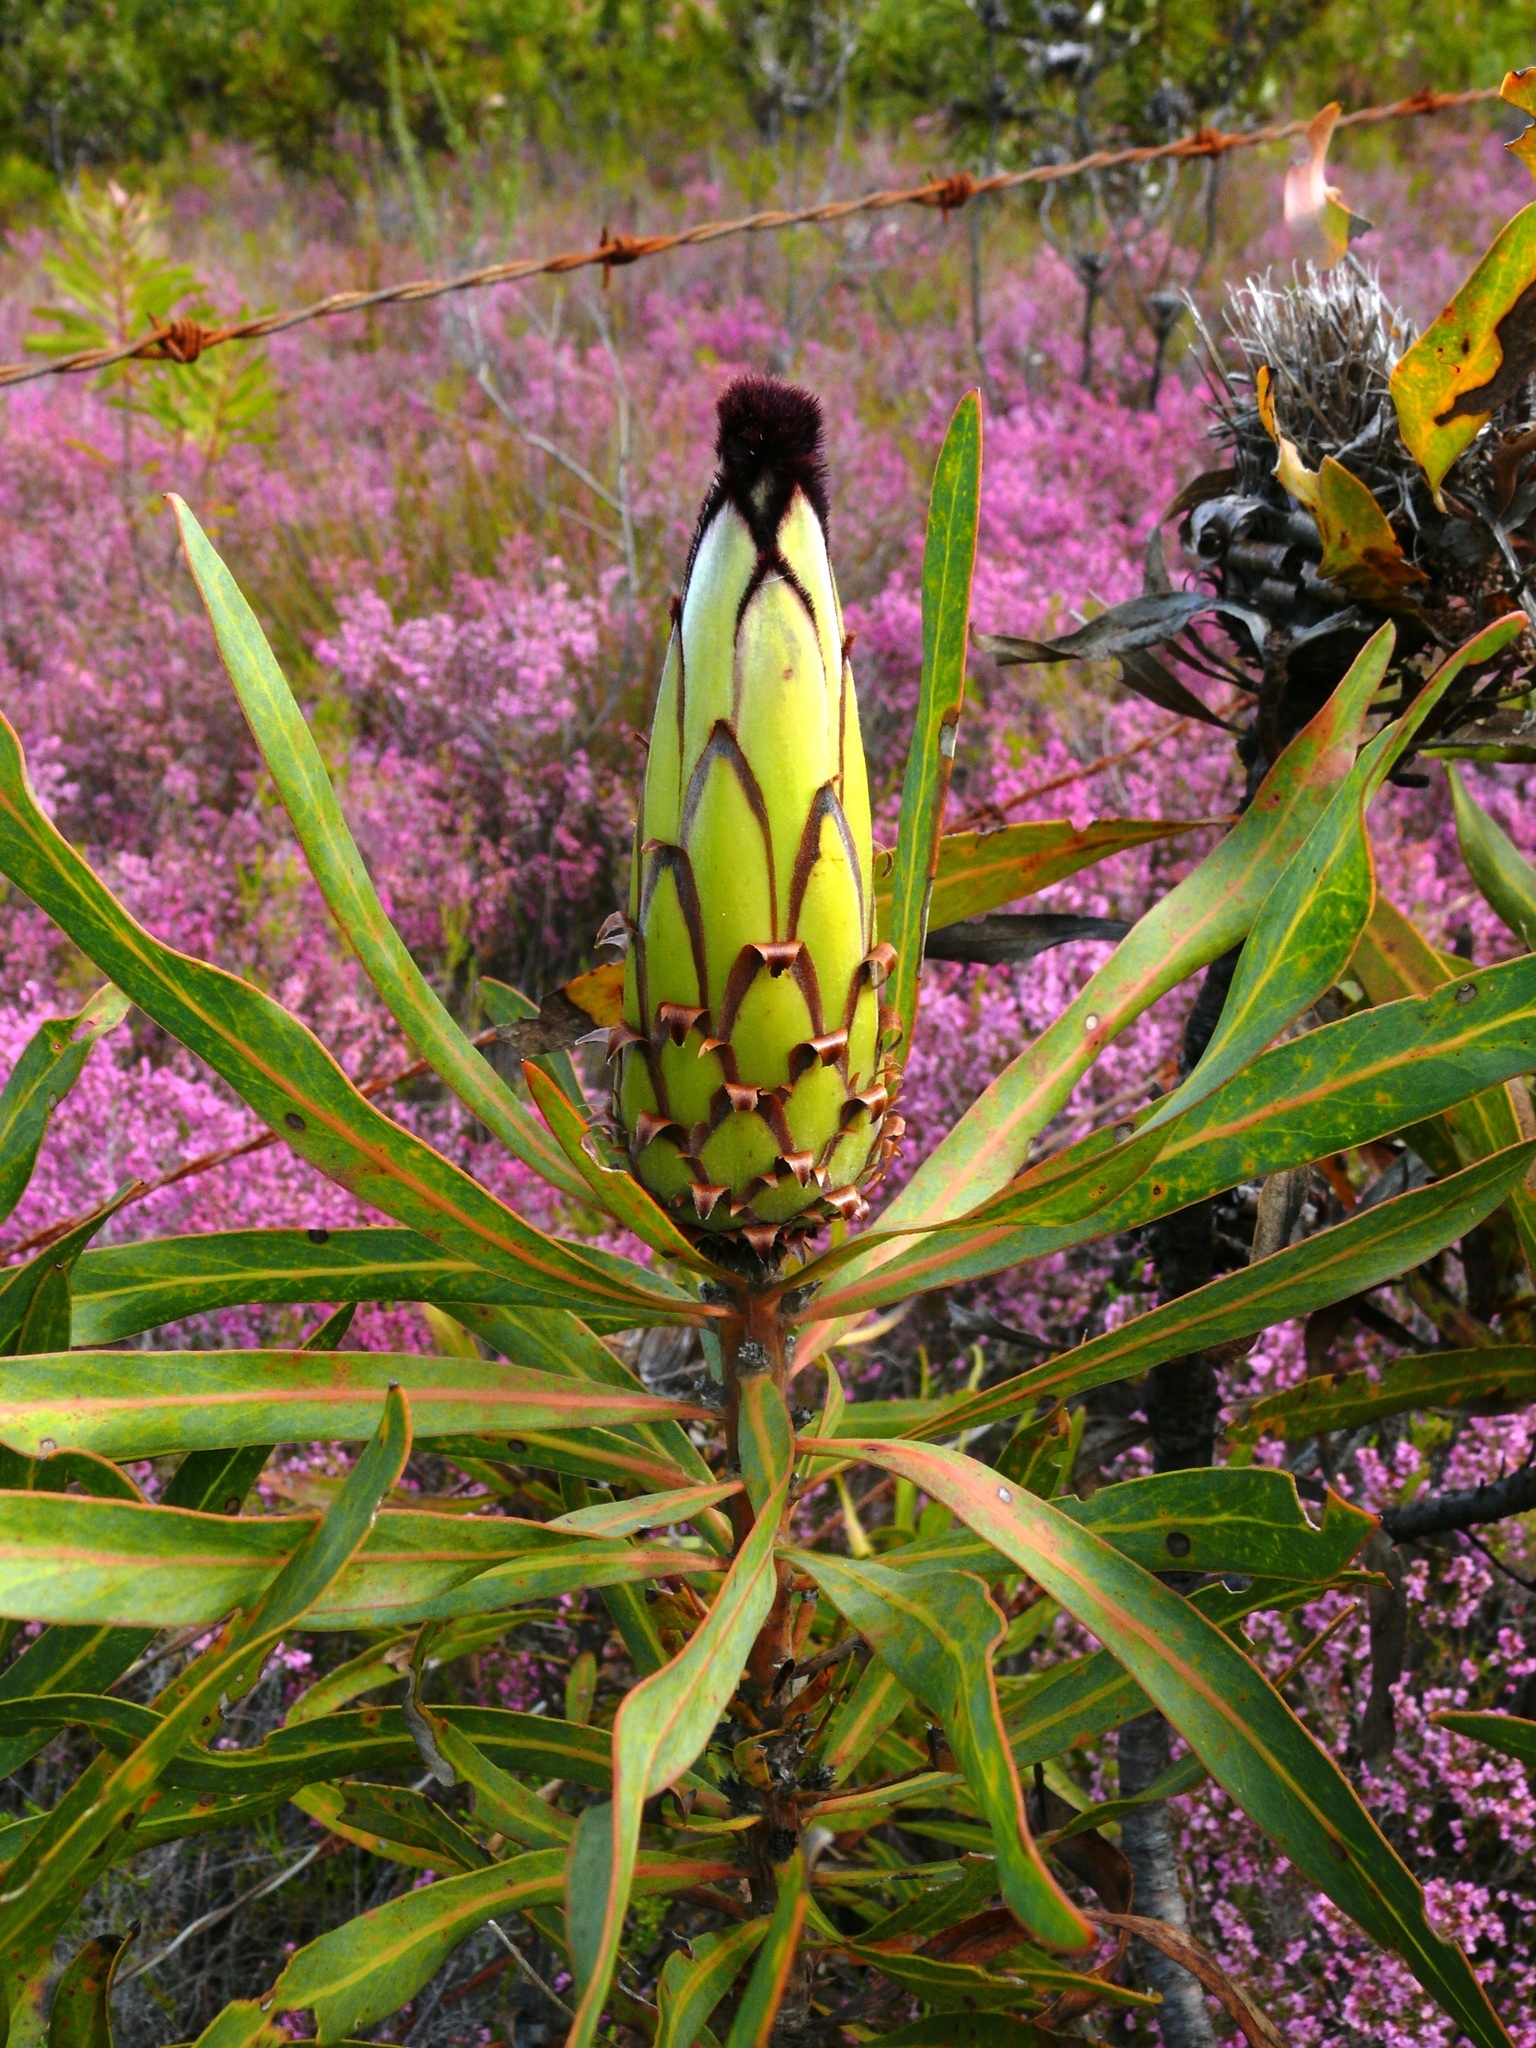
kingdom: Plantae
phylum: Tracheophyta
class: Magnoliopsida
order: Proteales
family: Proteaceae
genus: Protea
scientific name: Protea neriifolia
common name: Blue sugarbush
